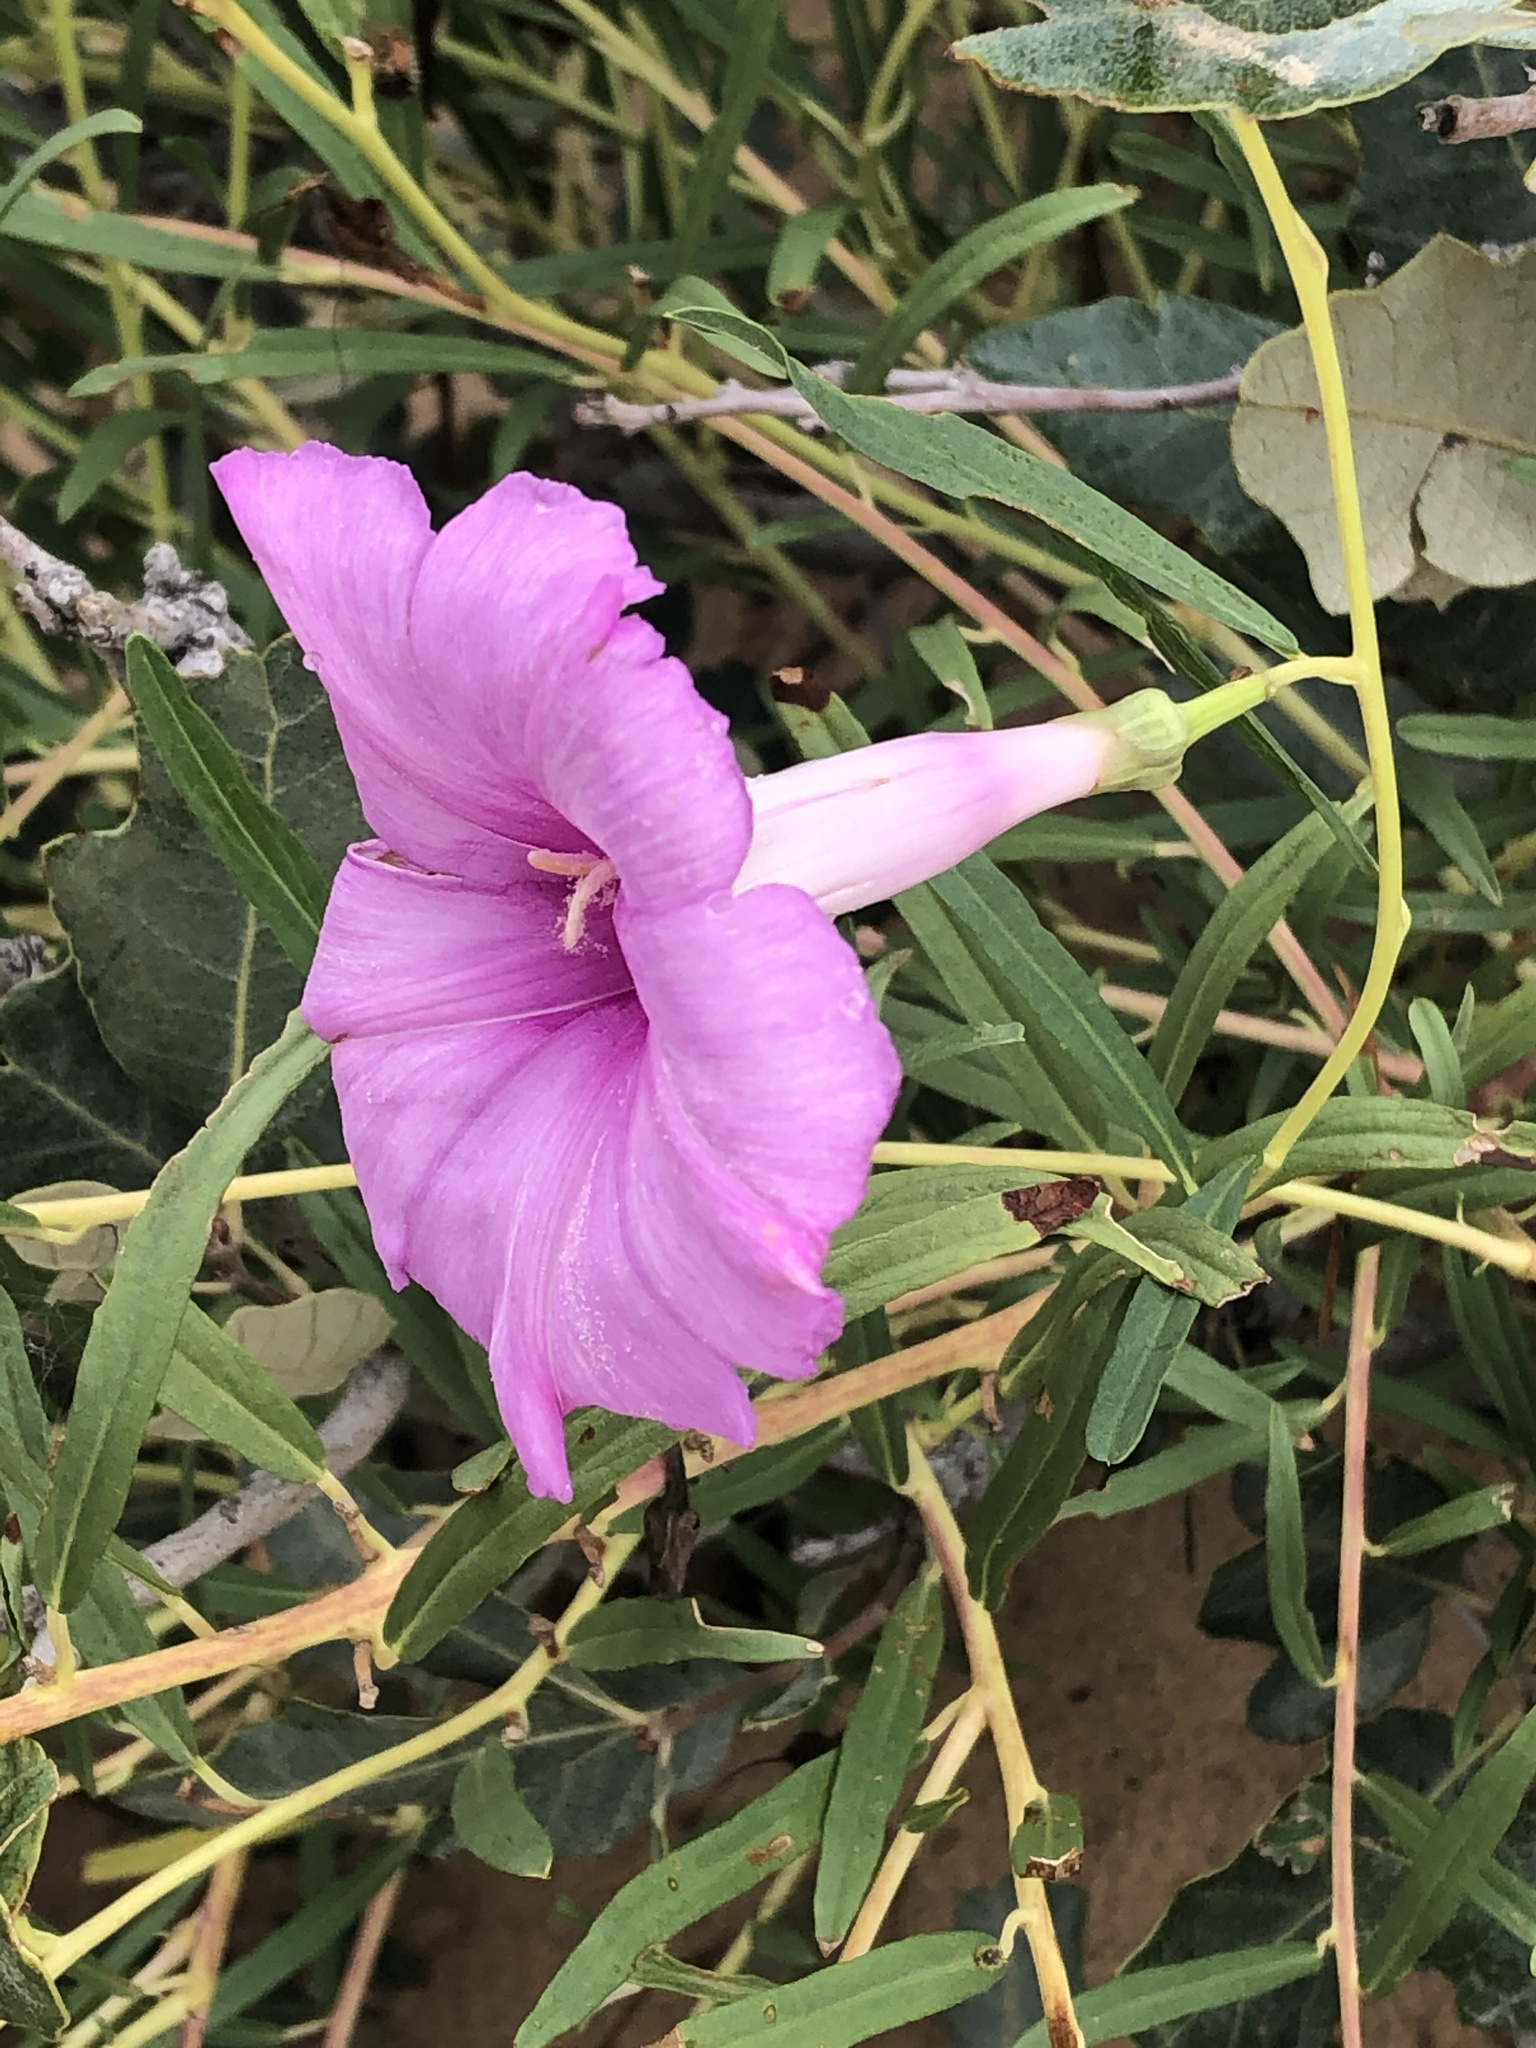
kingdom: Plantae
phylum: Tracheophyta
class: Magnoliopsida
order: Solanales
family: Convolvulaceae
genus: Ipomoea
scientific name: Ipomoea leptophylla
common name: Bush moonflower
